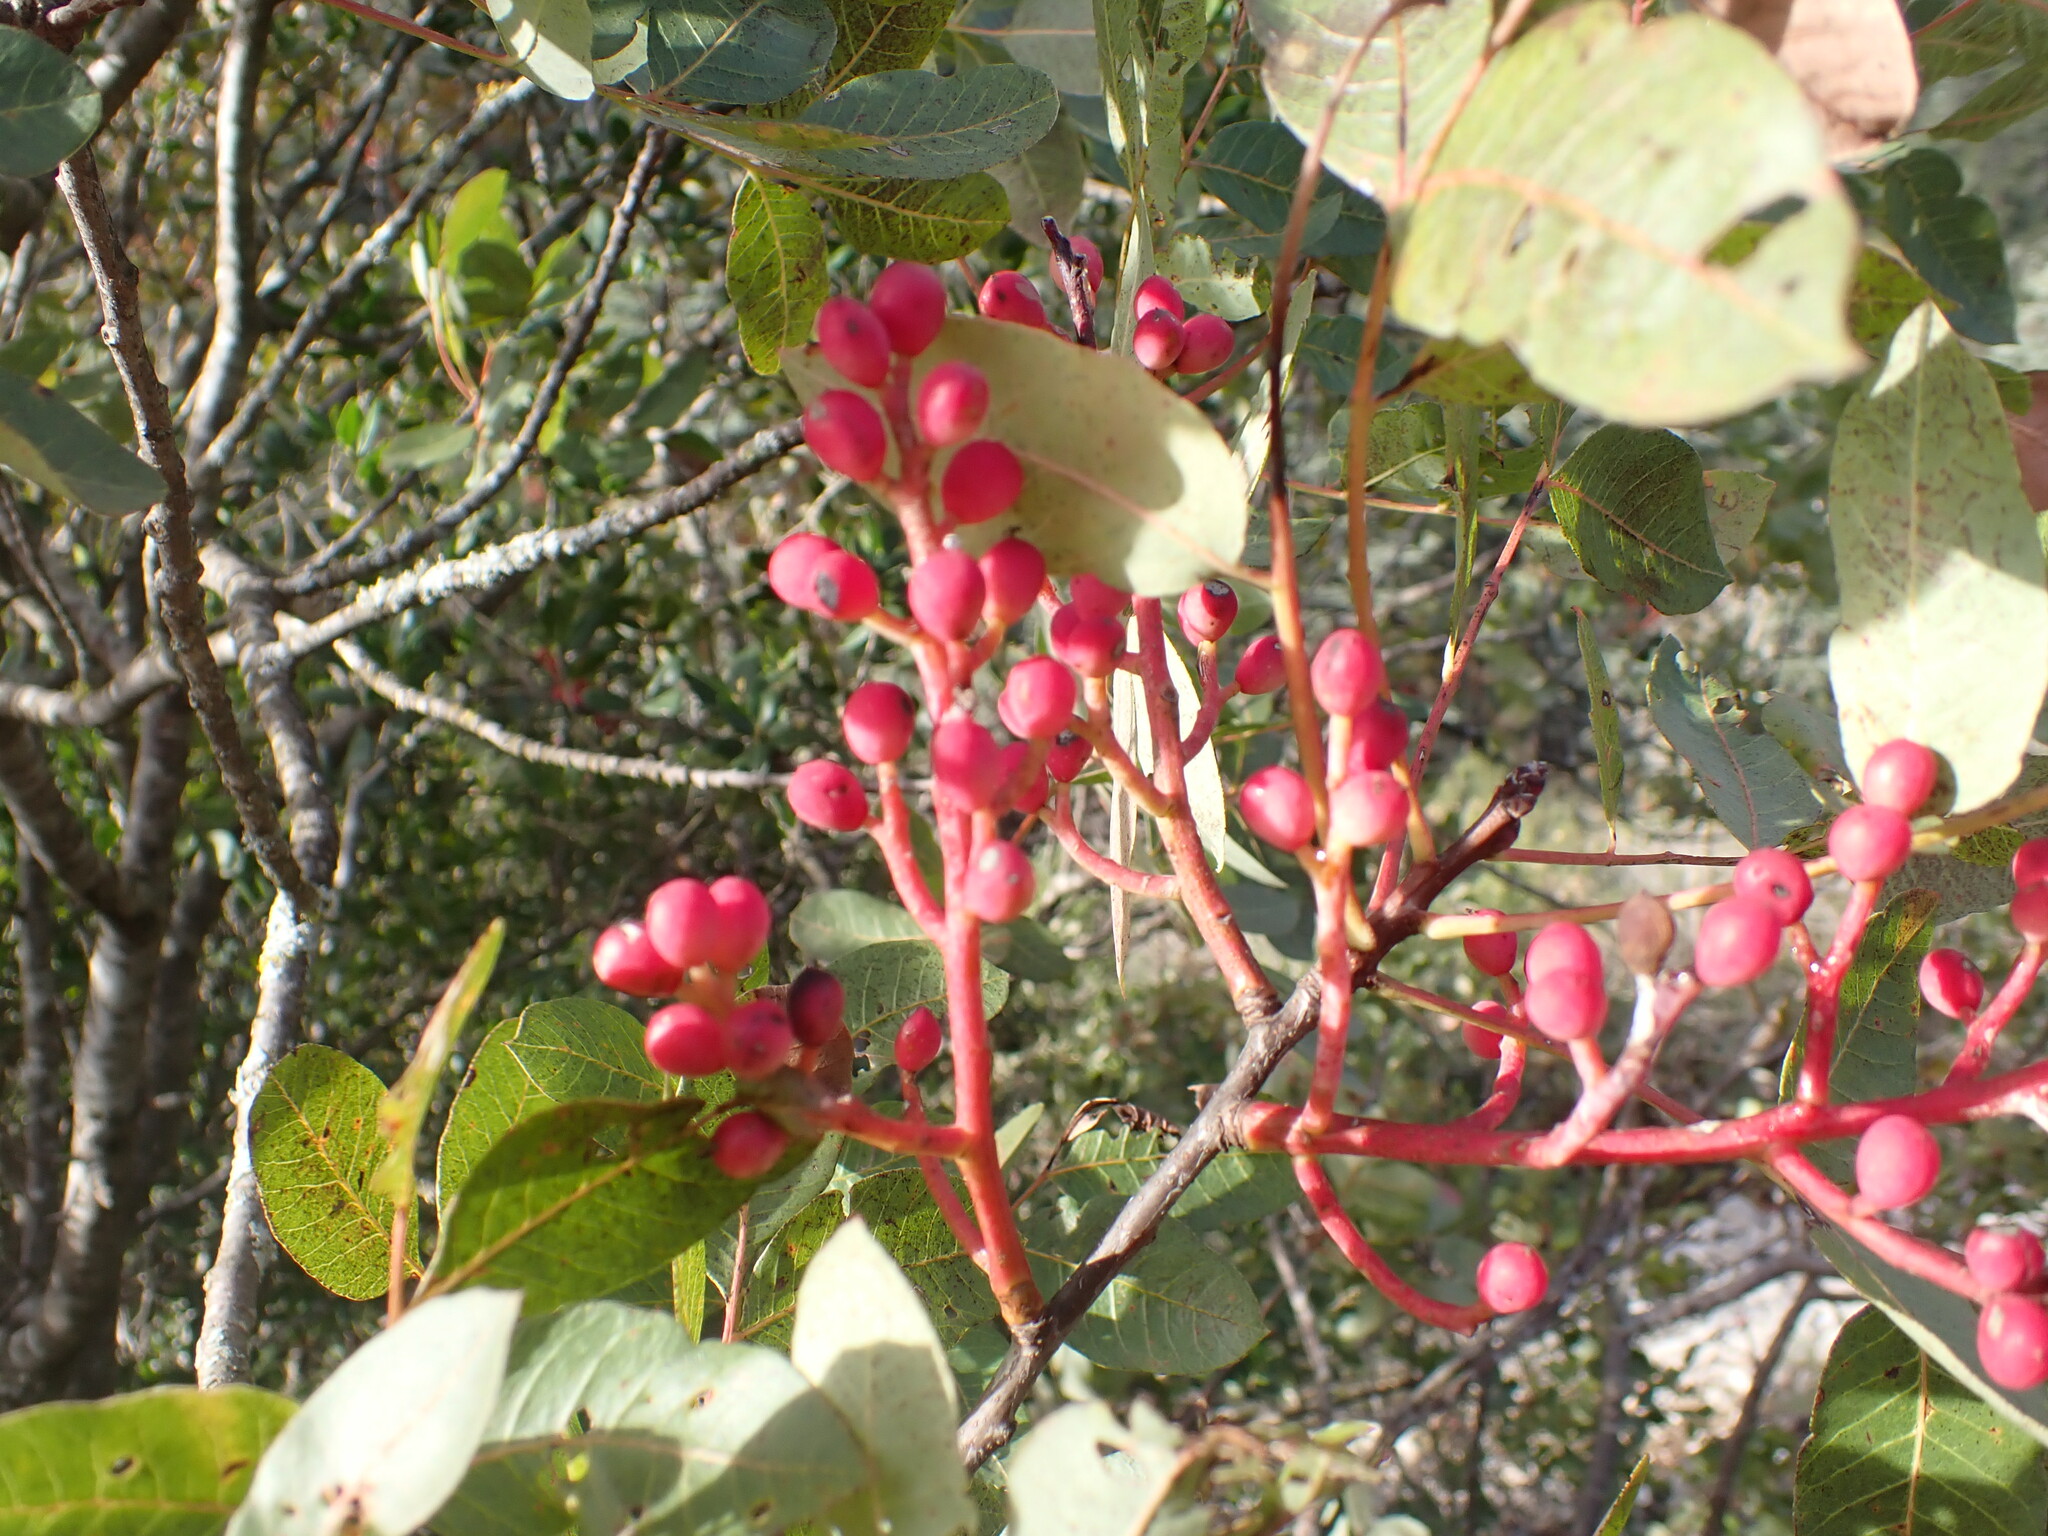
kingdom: Plantae
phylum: Tracheophyta
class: Magnoliopsida
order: Sapindales
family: Anacardiaceae
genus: Pistacia
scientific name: Pistacia terebinthus
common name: Terebinth
